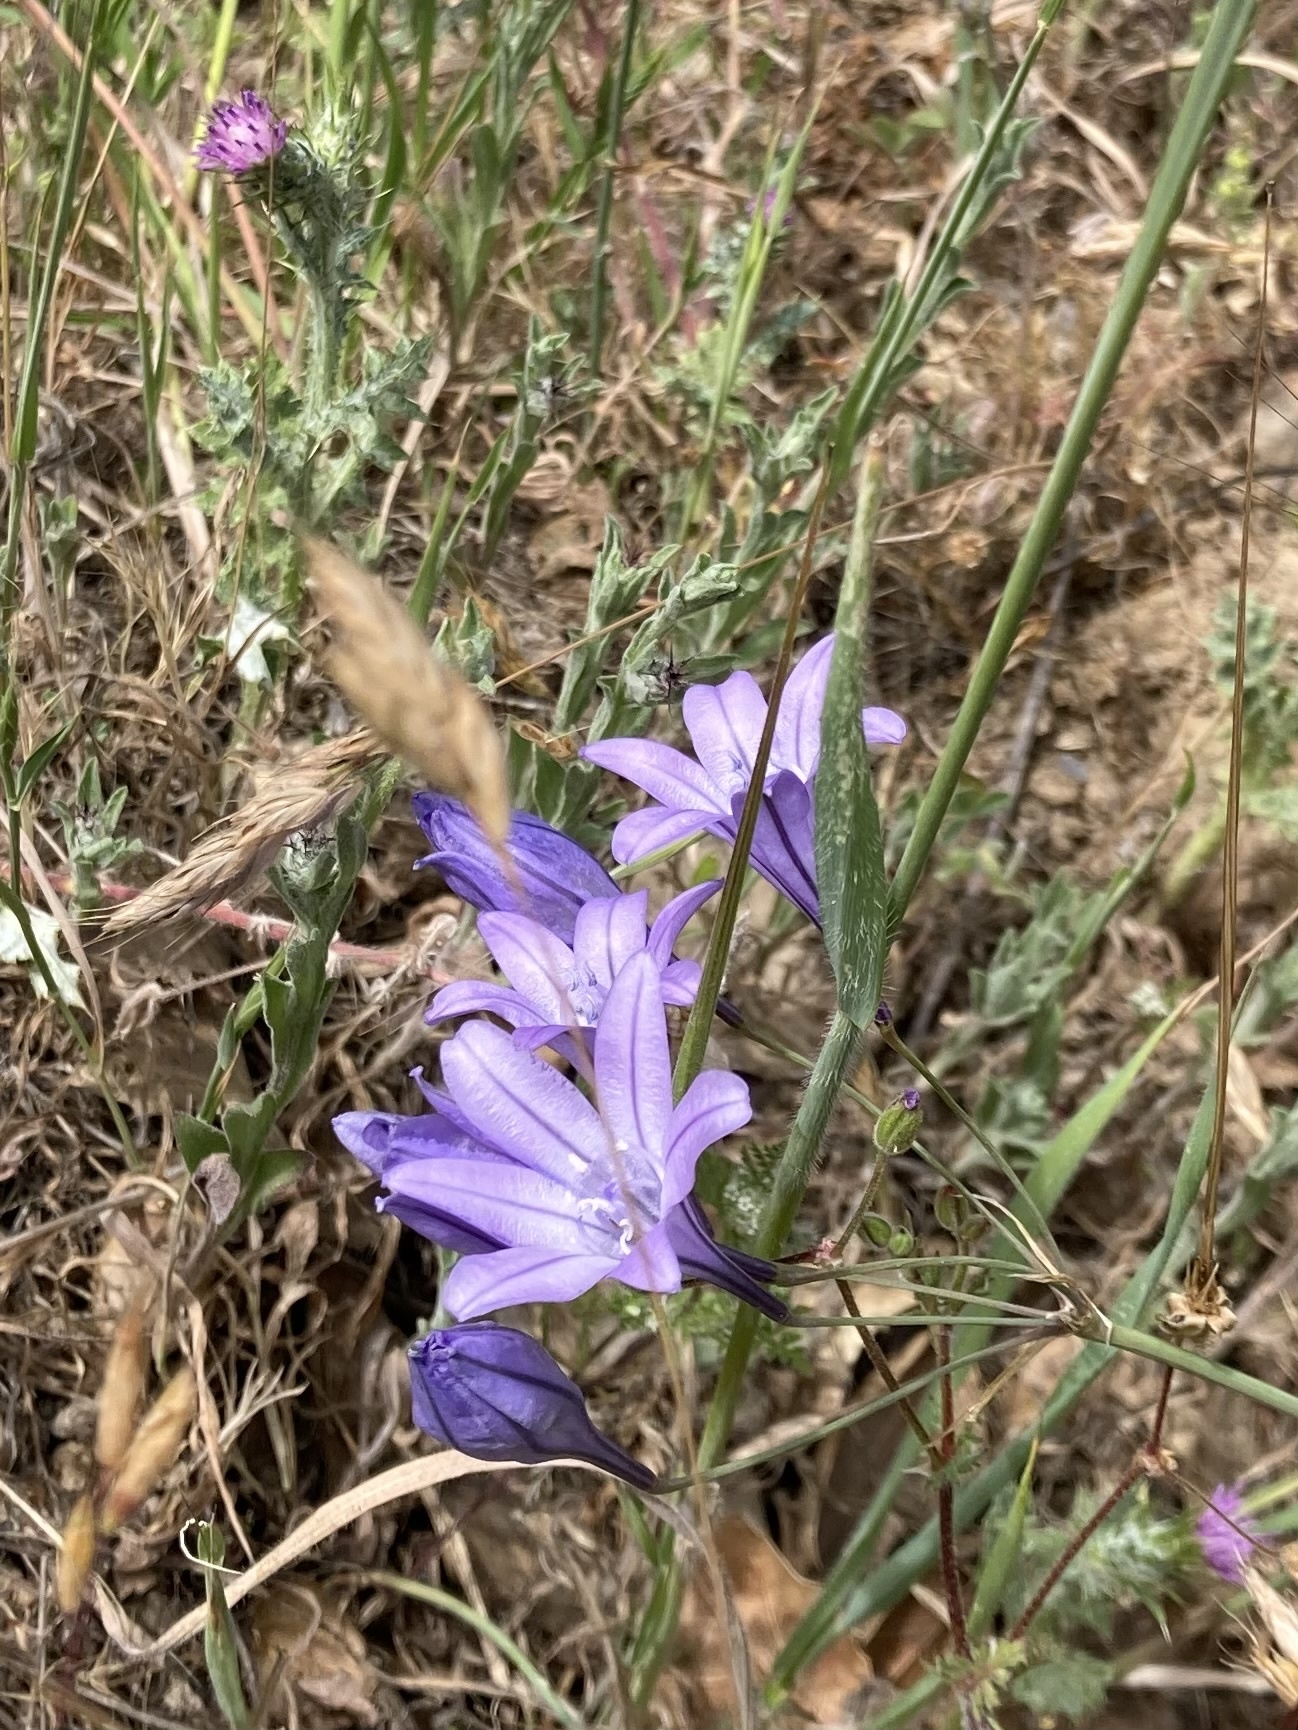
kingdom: Plantae
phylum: Tracheophyta
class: Liliopsida
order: Asparagales
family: Asparagaceae
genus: Triteleia
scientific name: Triteleia laxa
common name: Triplet-lily
